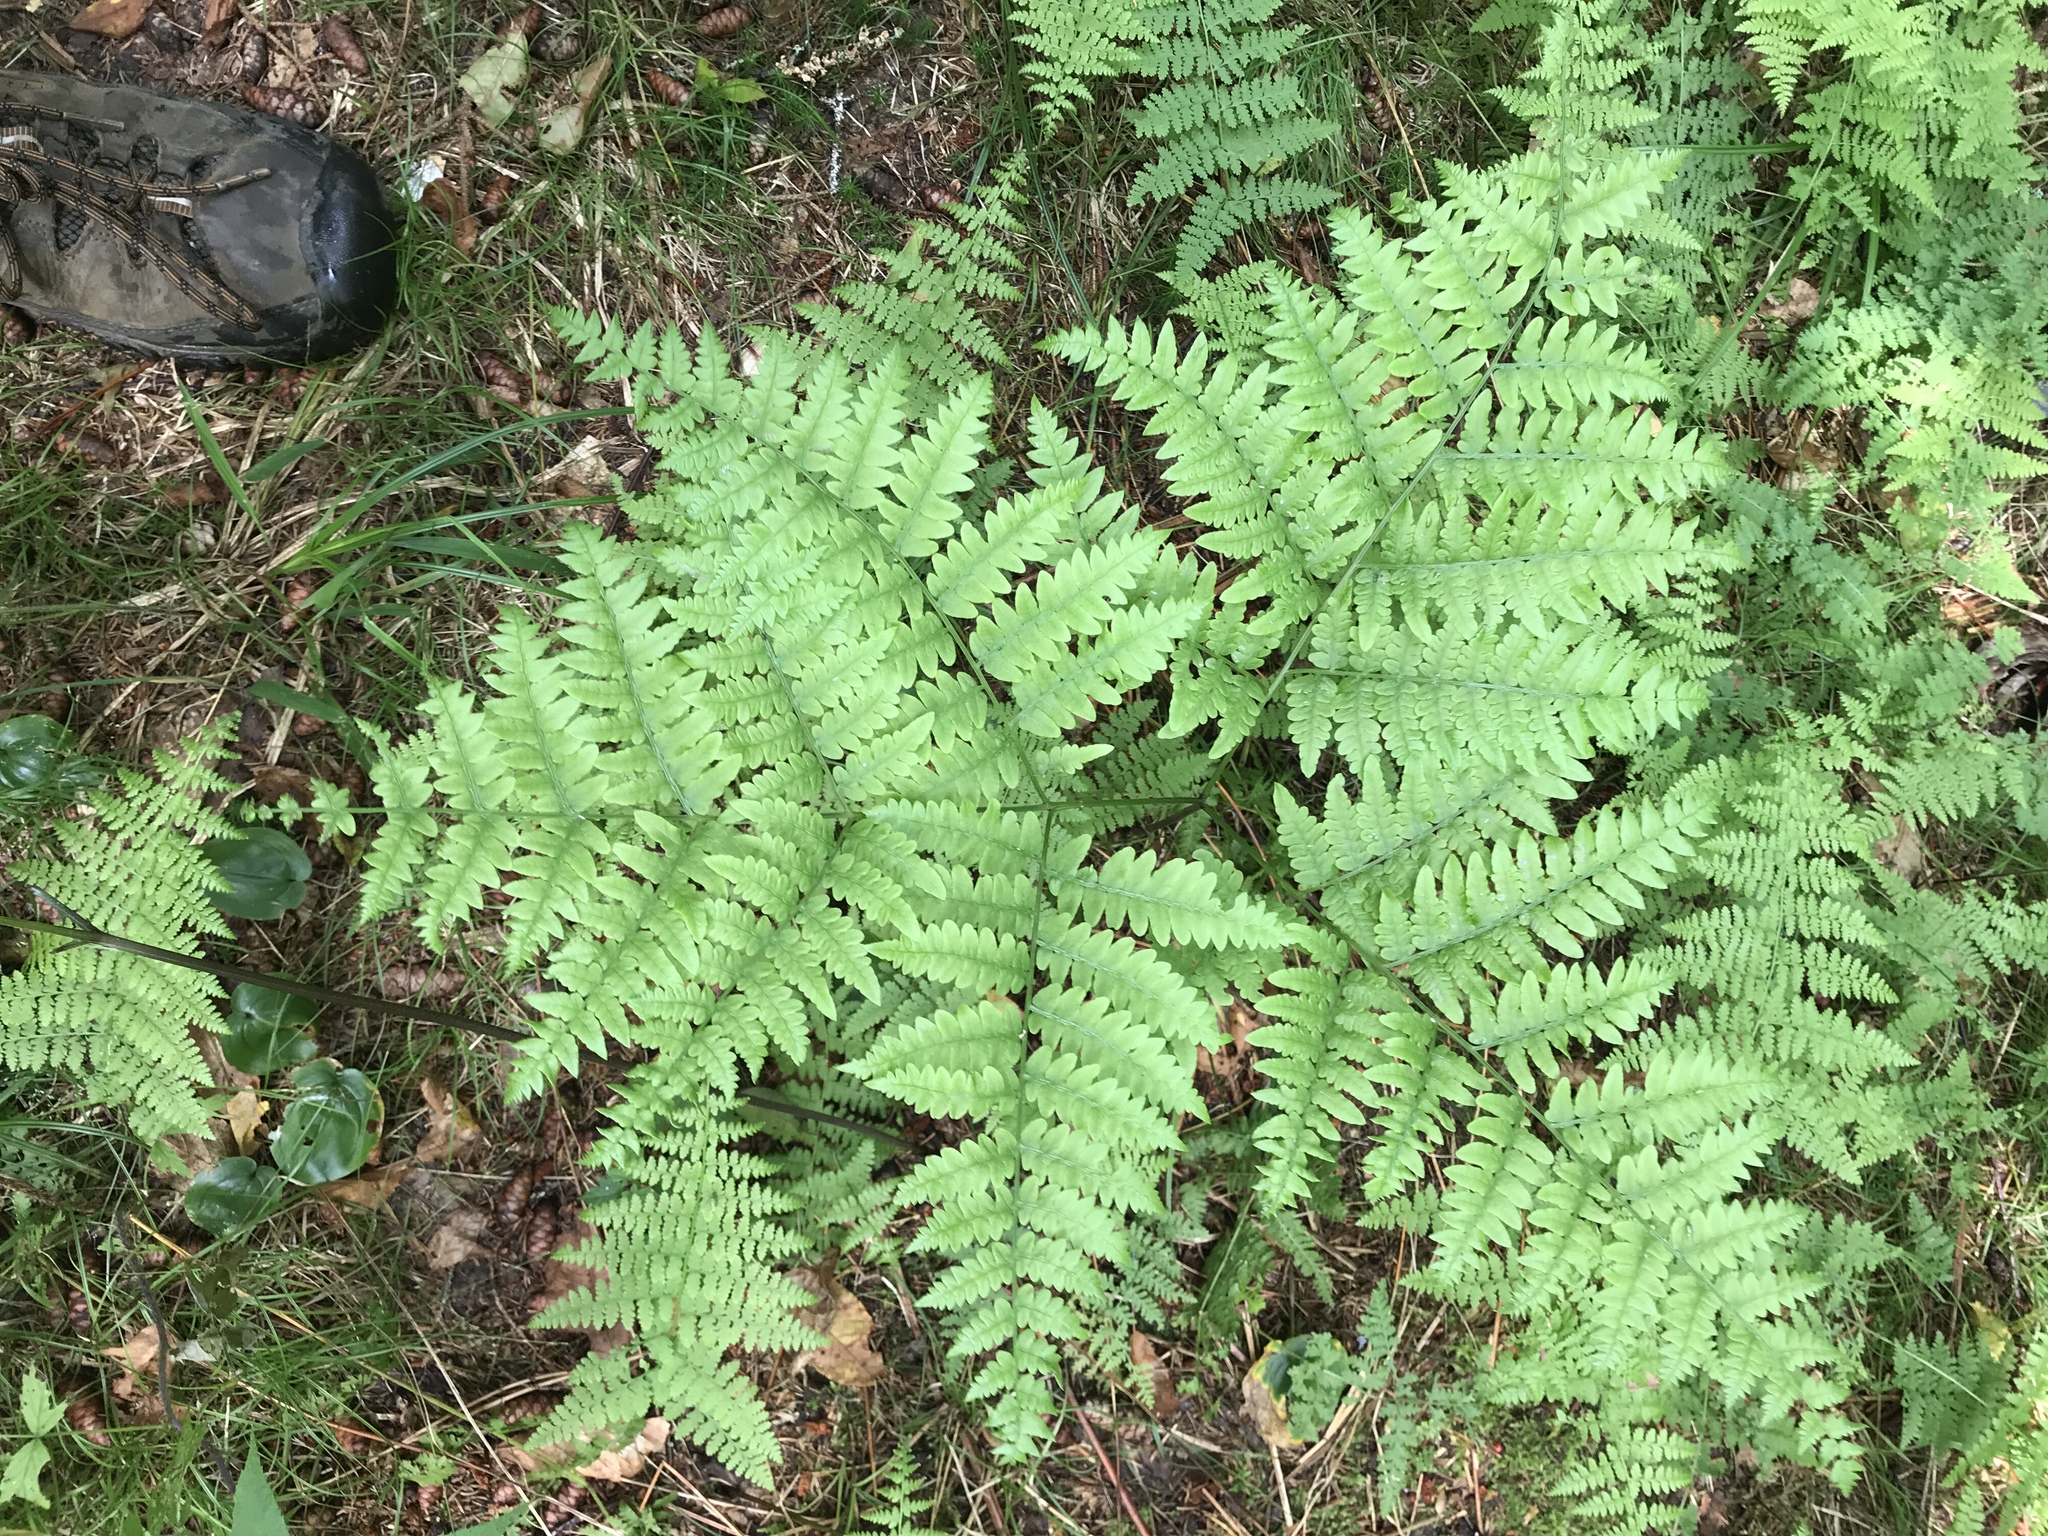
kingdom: Plantae
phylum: Tracheophyta
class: Polypodiopsida
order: Polypodiales
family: Dennstaedtiaceae
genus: Pteridium
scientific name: Pteridium aquilinum
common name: Bracken
